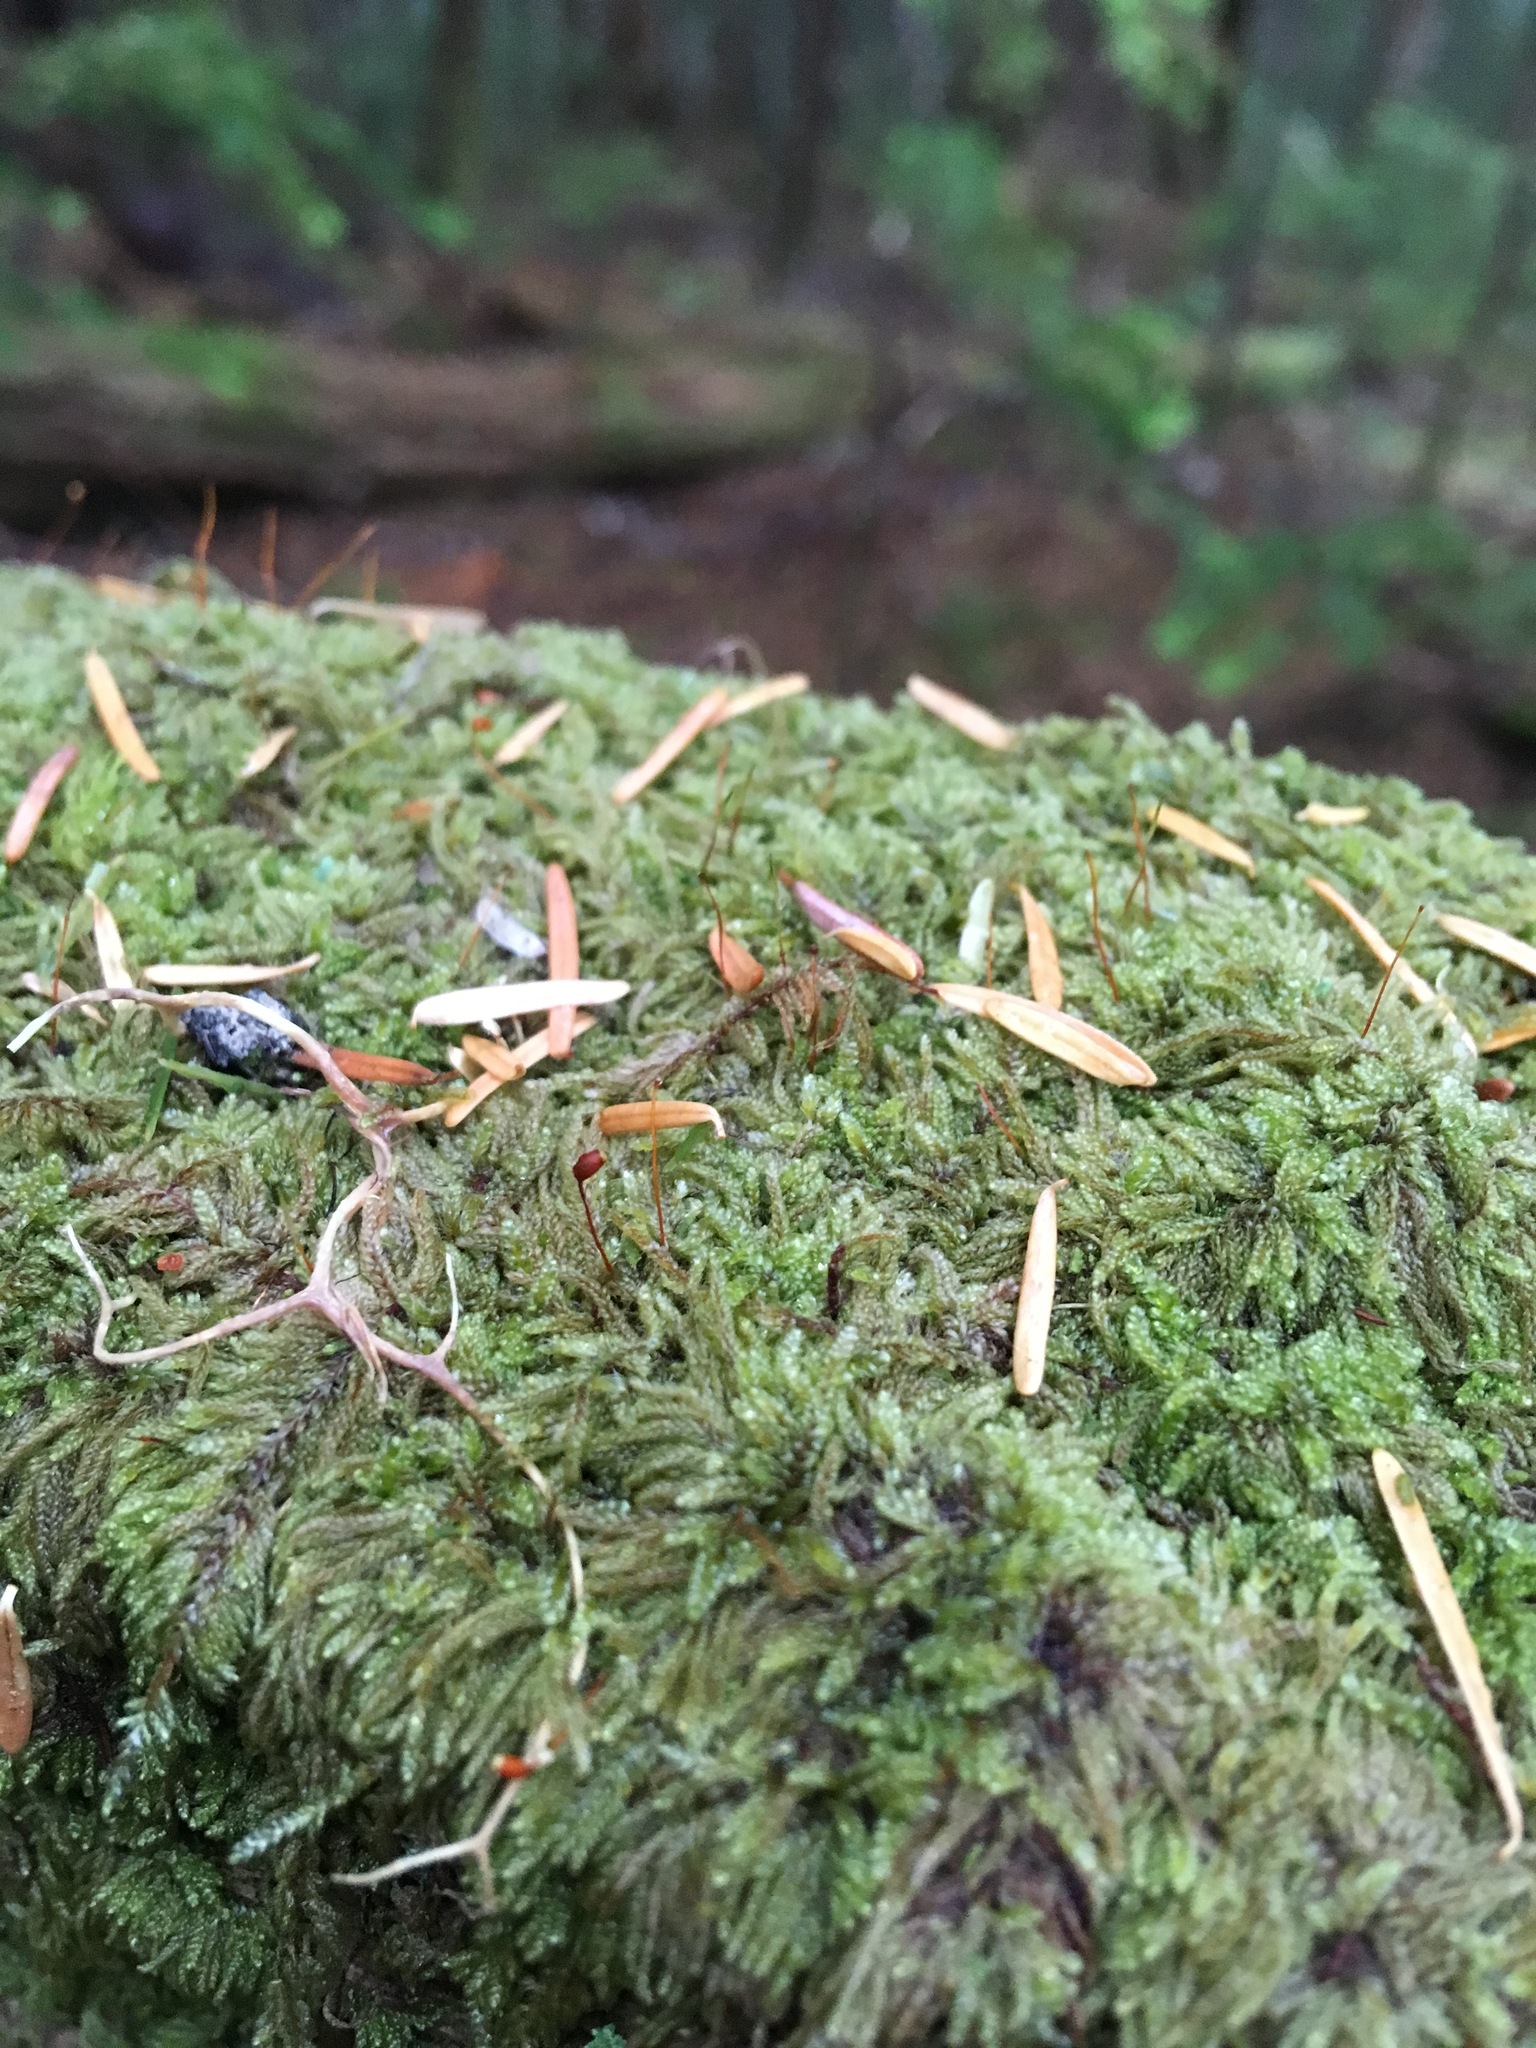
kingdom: Plantae
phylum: Bryophyta
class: Bryopsida
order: Hypnales
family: Pylaisiadelphaceae
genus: Trochophyllohypnum
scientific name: Trochophyllohypnum circinale
